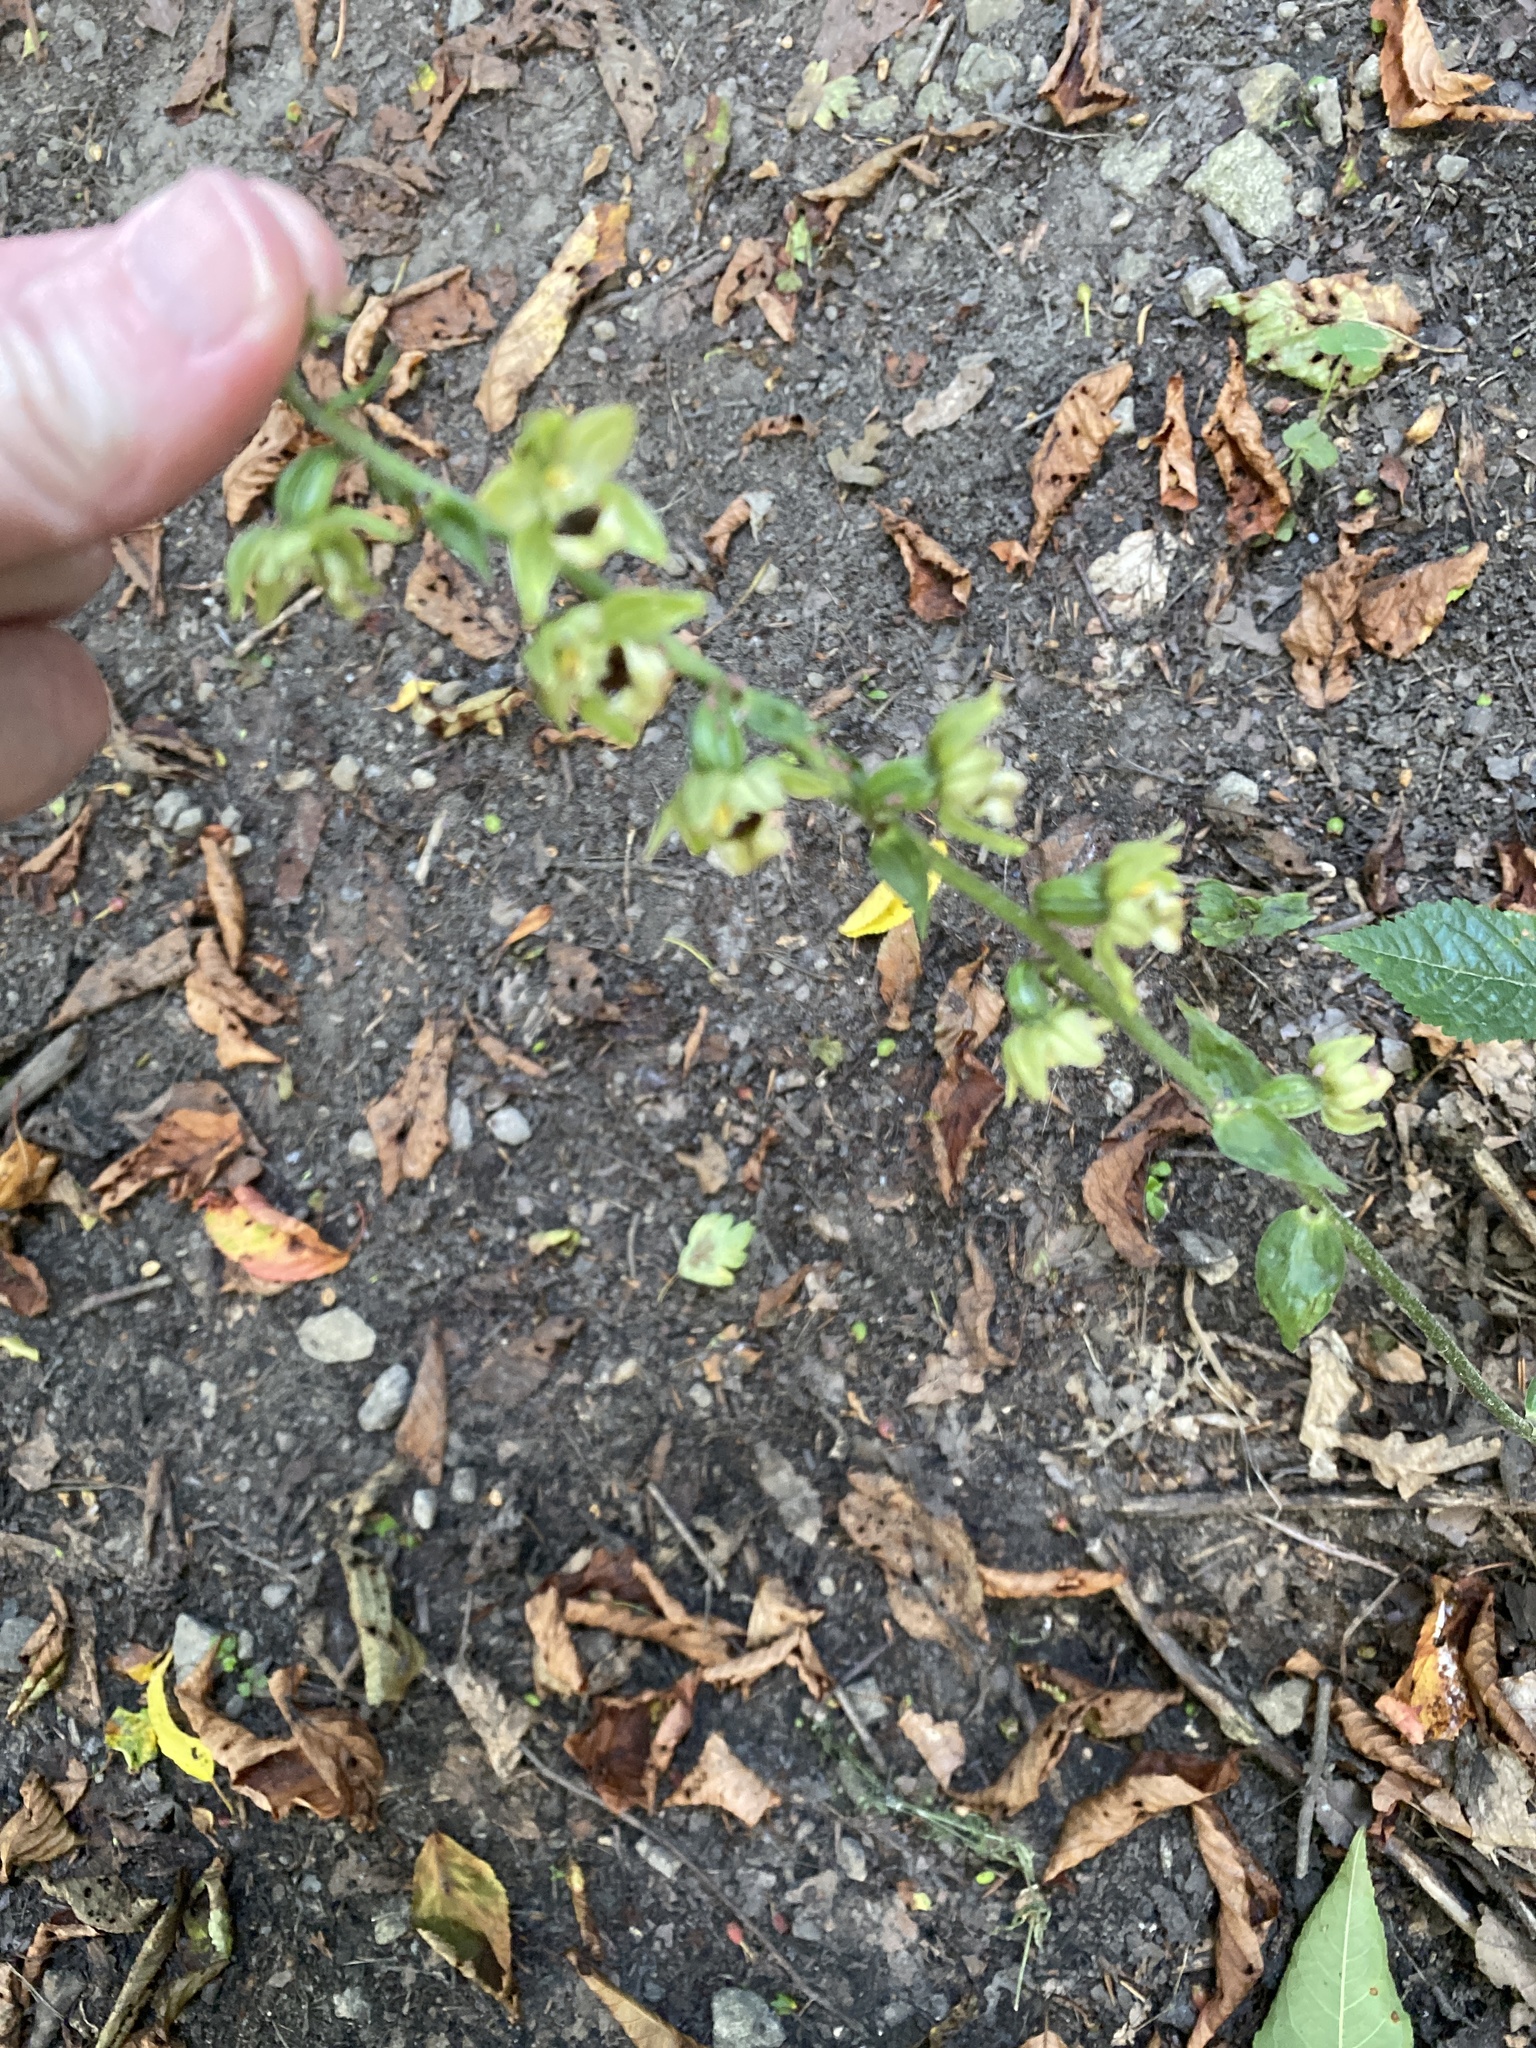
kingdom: Plantae
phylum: Tracheophyta
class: Liliopsida
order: Asparagales
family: Orchidaceae
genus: Epipactis
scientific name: Epipactis helleborine
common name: Broad-leaved helleborine
